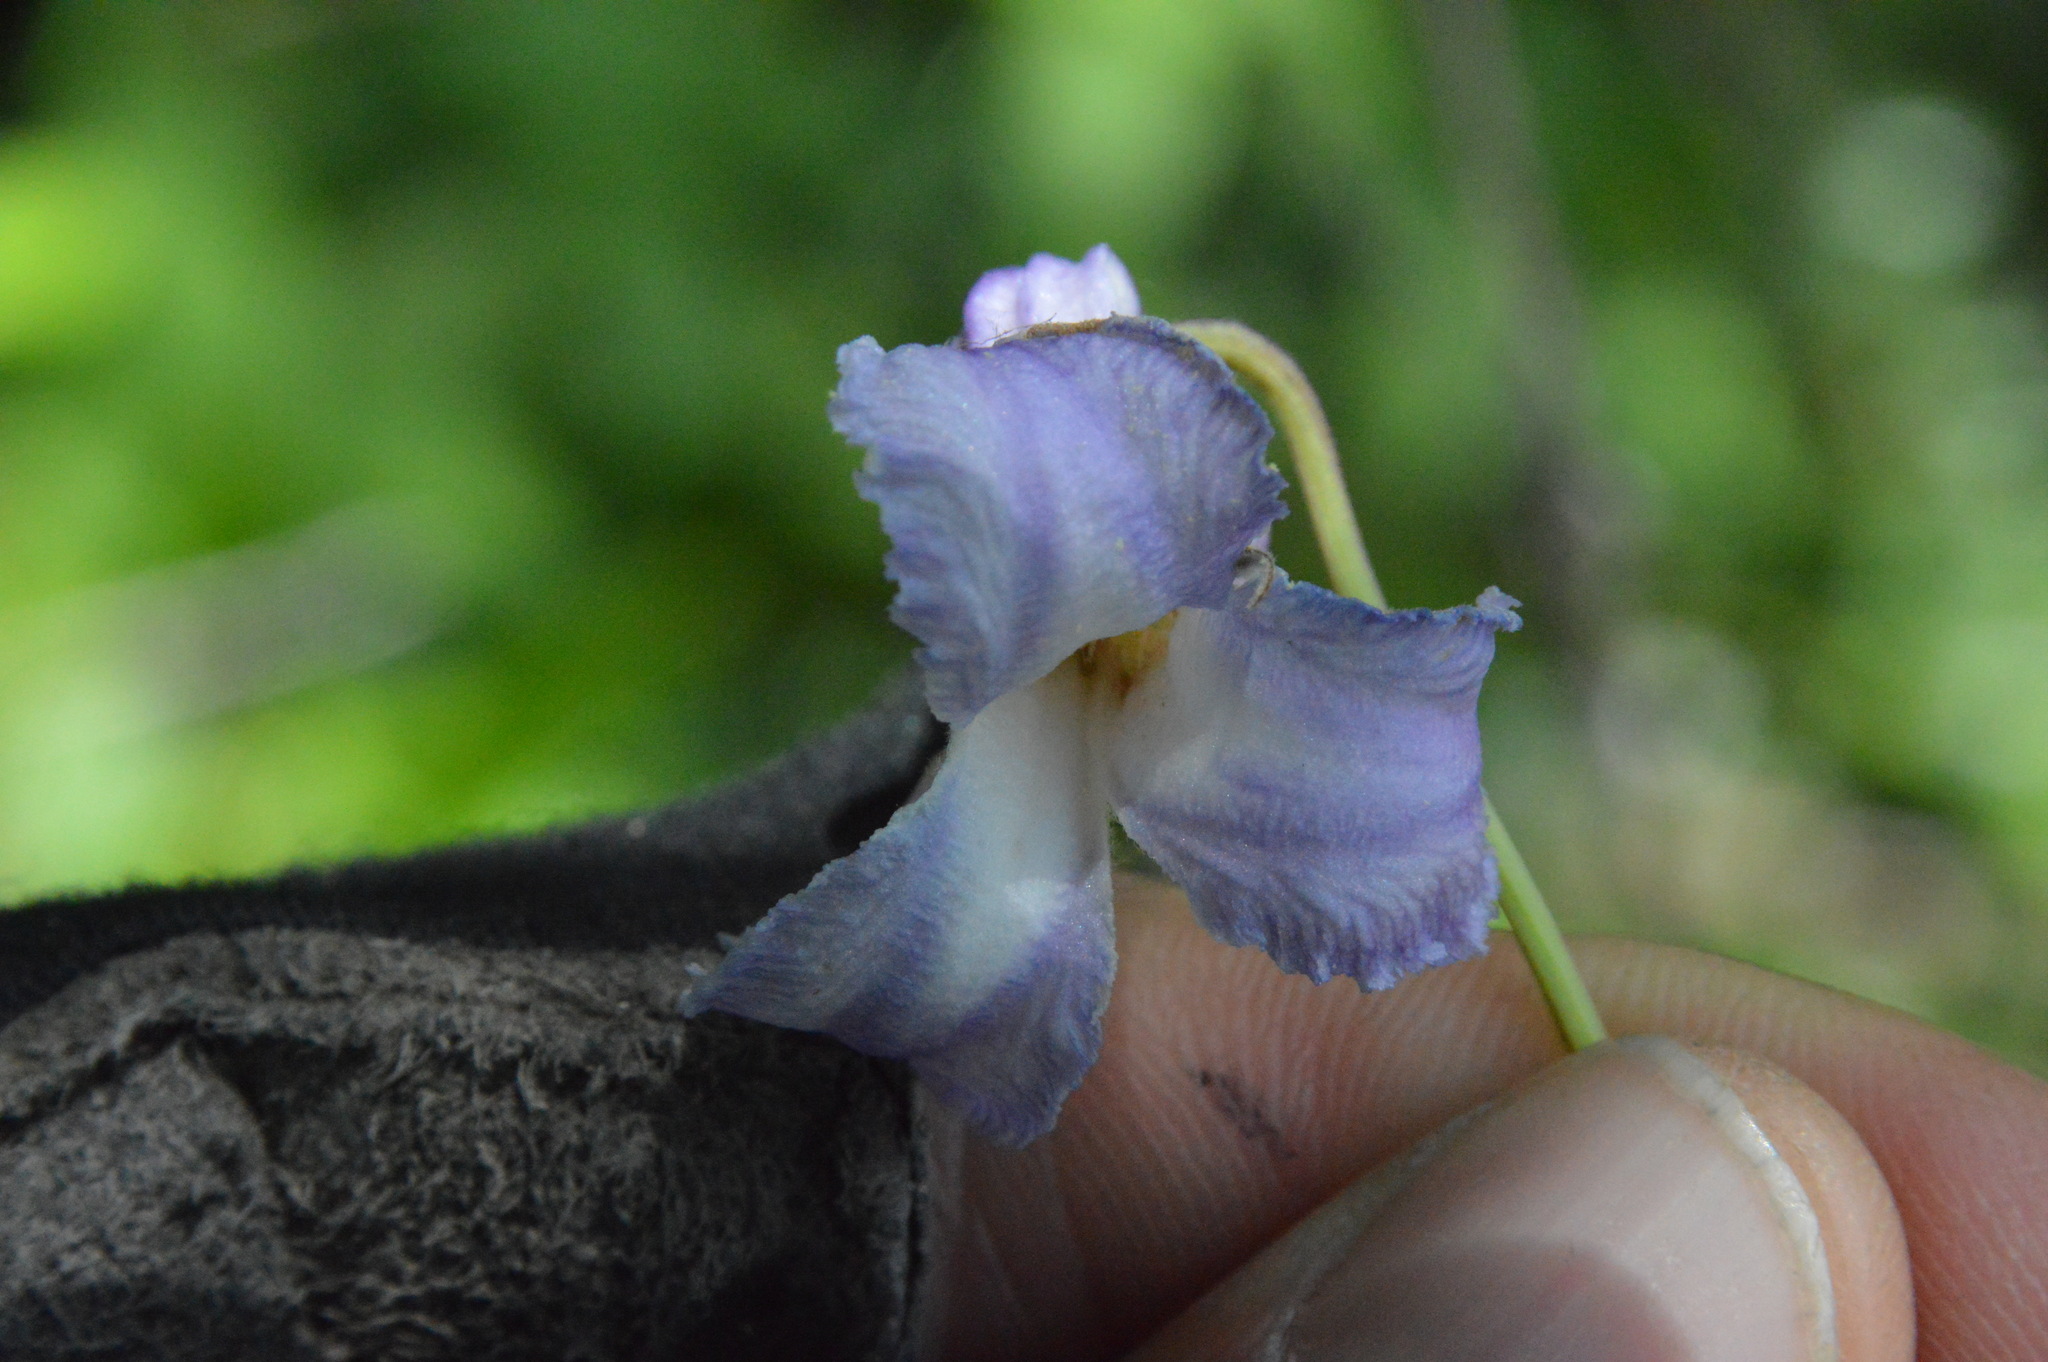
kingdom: Plantae
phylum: Tracheophyta
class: Magnoliopsida
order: Ranunculales
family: Ranunculaceae
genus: Clematis
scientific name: Clematis crispa
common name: Curly clematis
